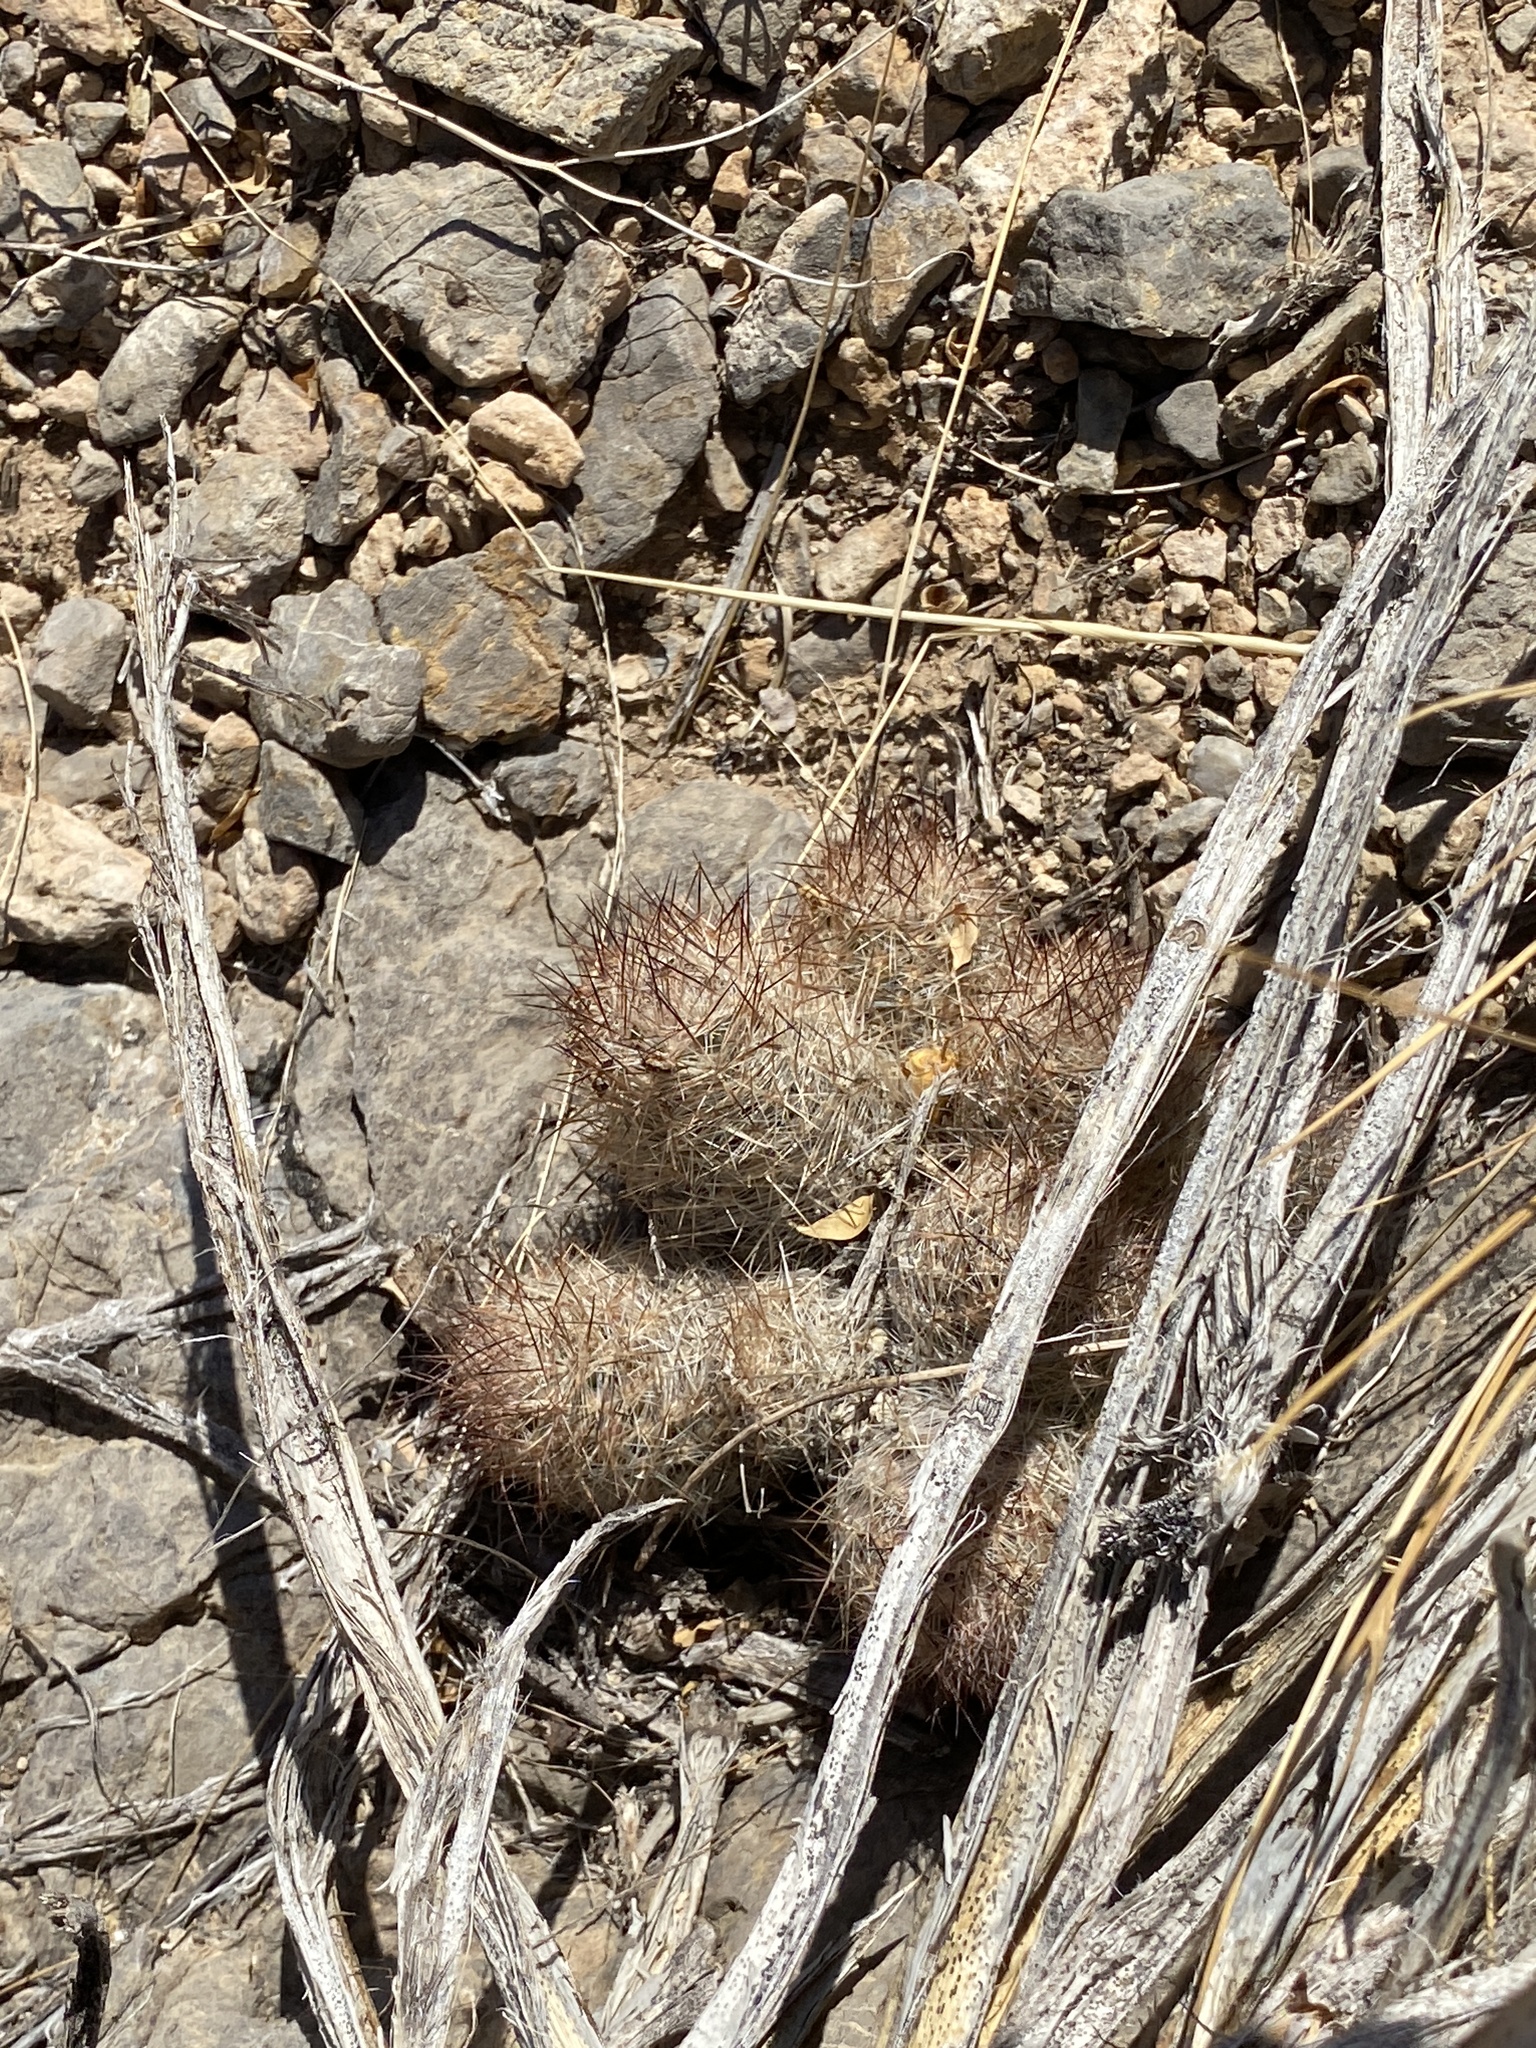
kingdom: Plantae
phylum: Tracheophyta
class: Magnoliopsida
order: Caryophyllales
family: Cactaceae
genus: Pelecyphora
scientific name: Pelecyphora tuberculosa
